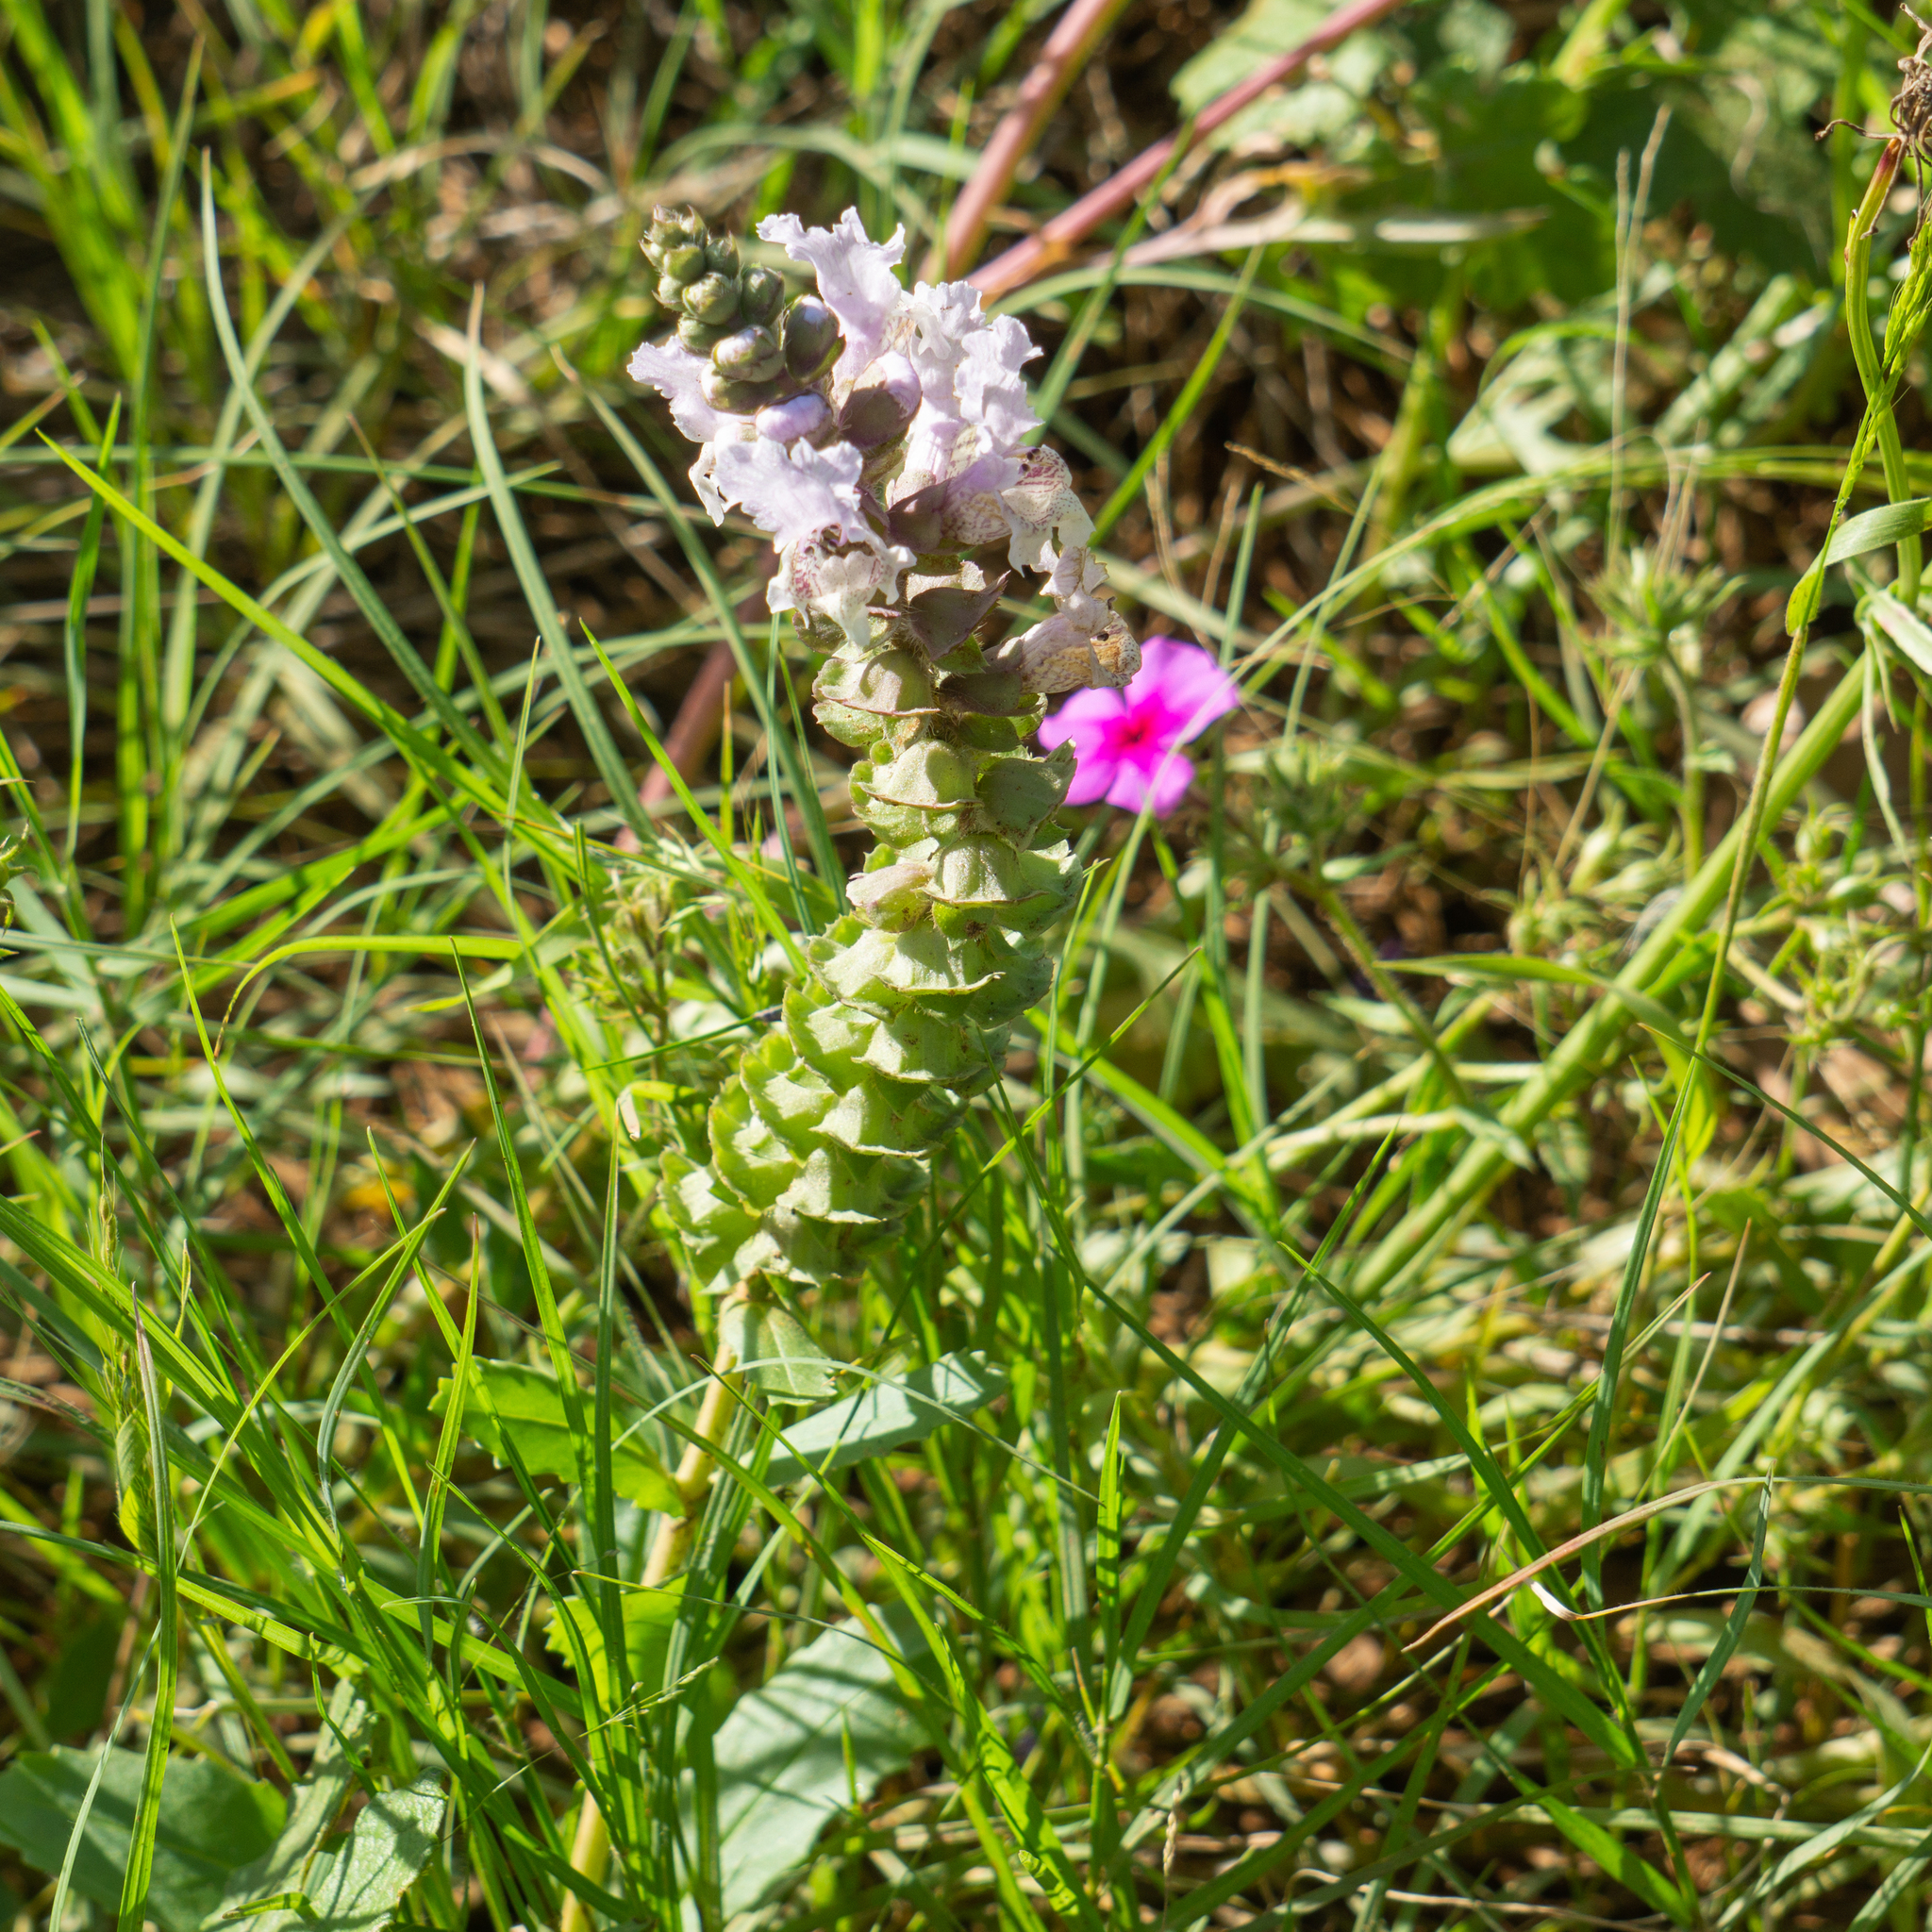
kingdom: Plantae
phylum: Tracheophyta
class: Magnoliopsida
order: Lamiales
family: Lamiaceae
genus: Brazoria
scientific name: Brazoria truncata
